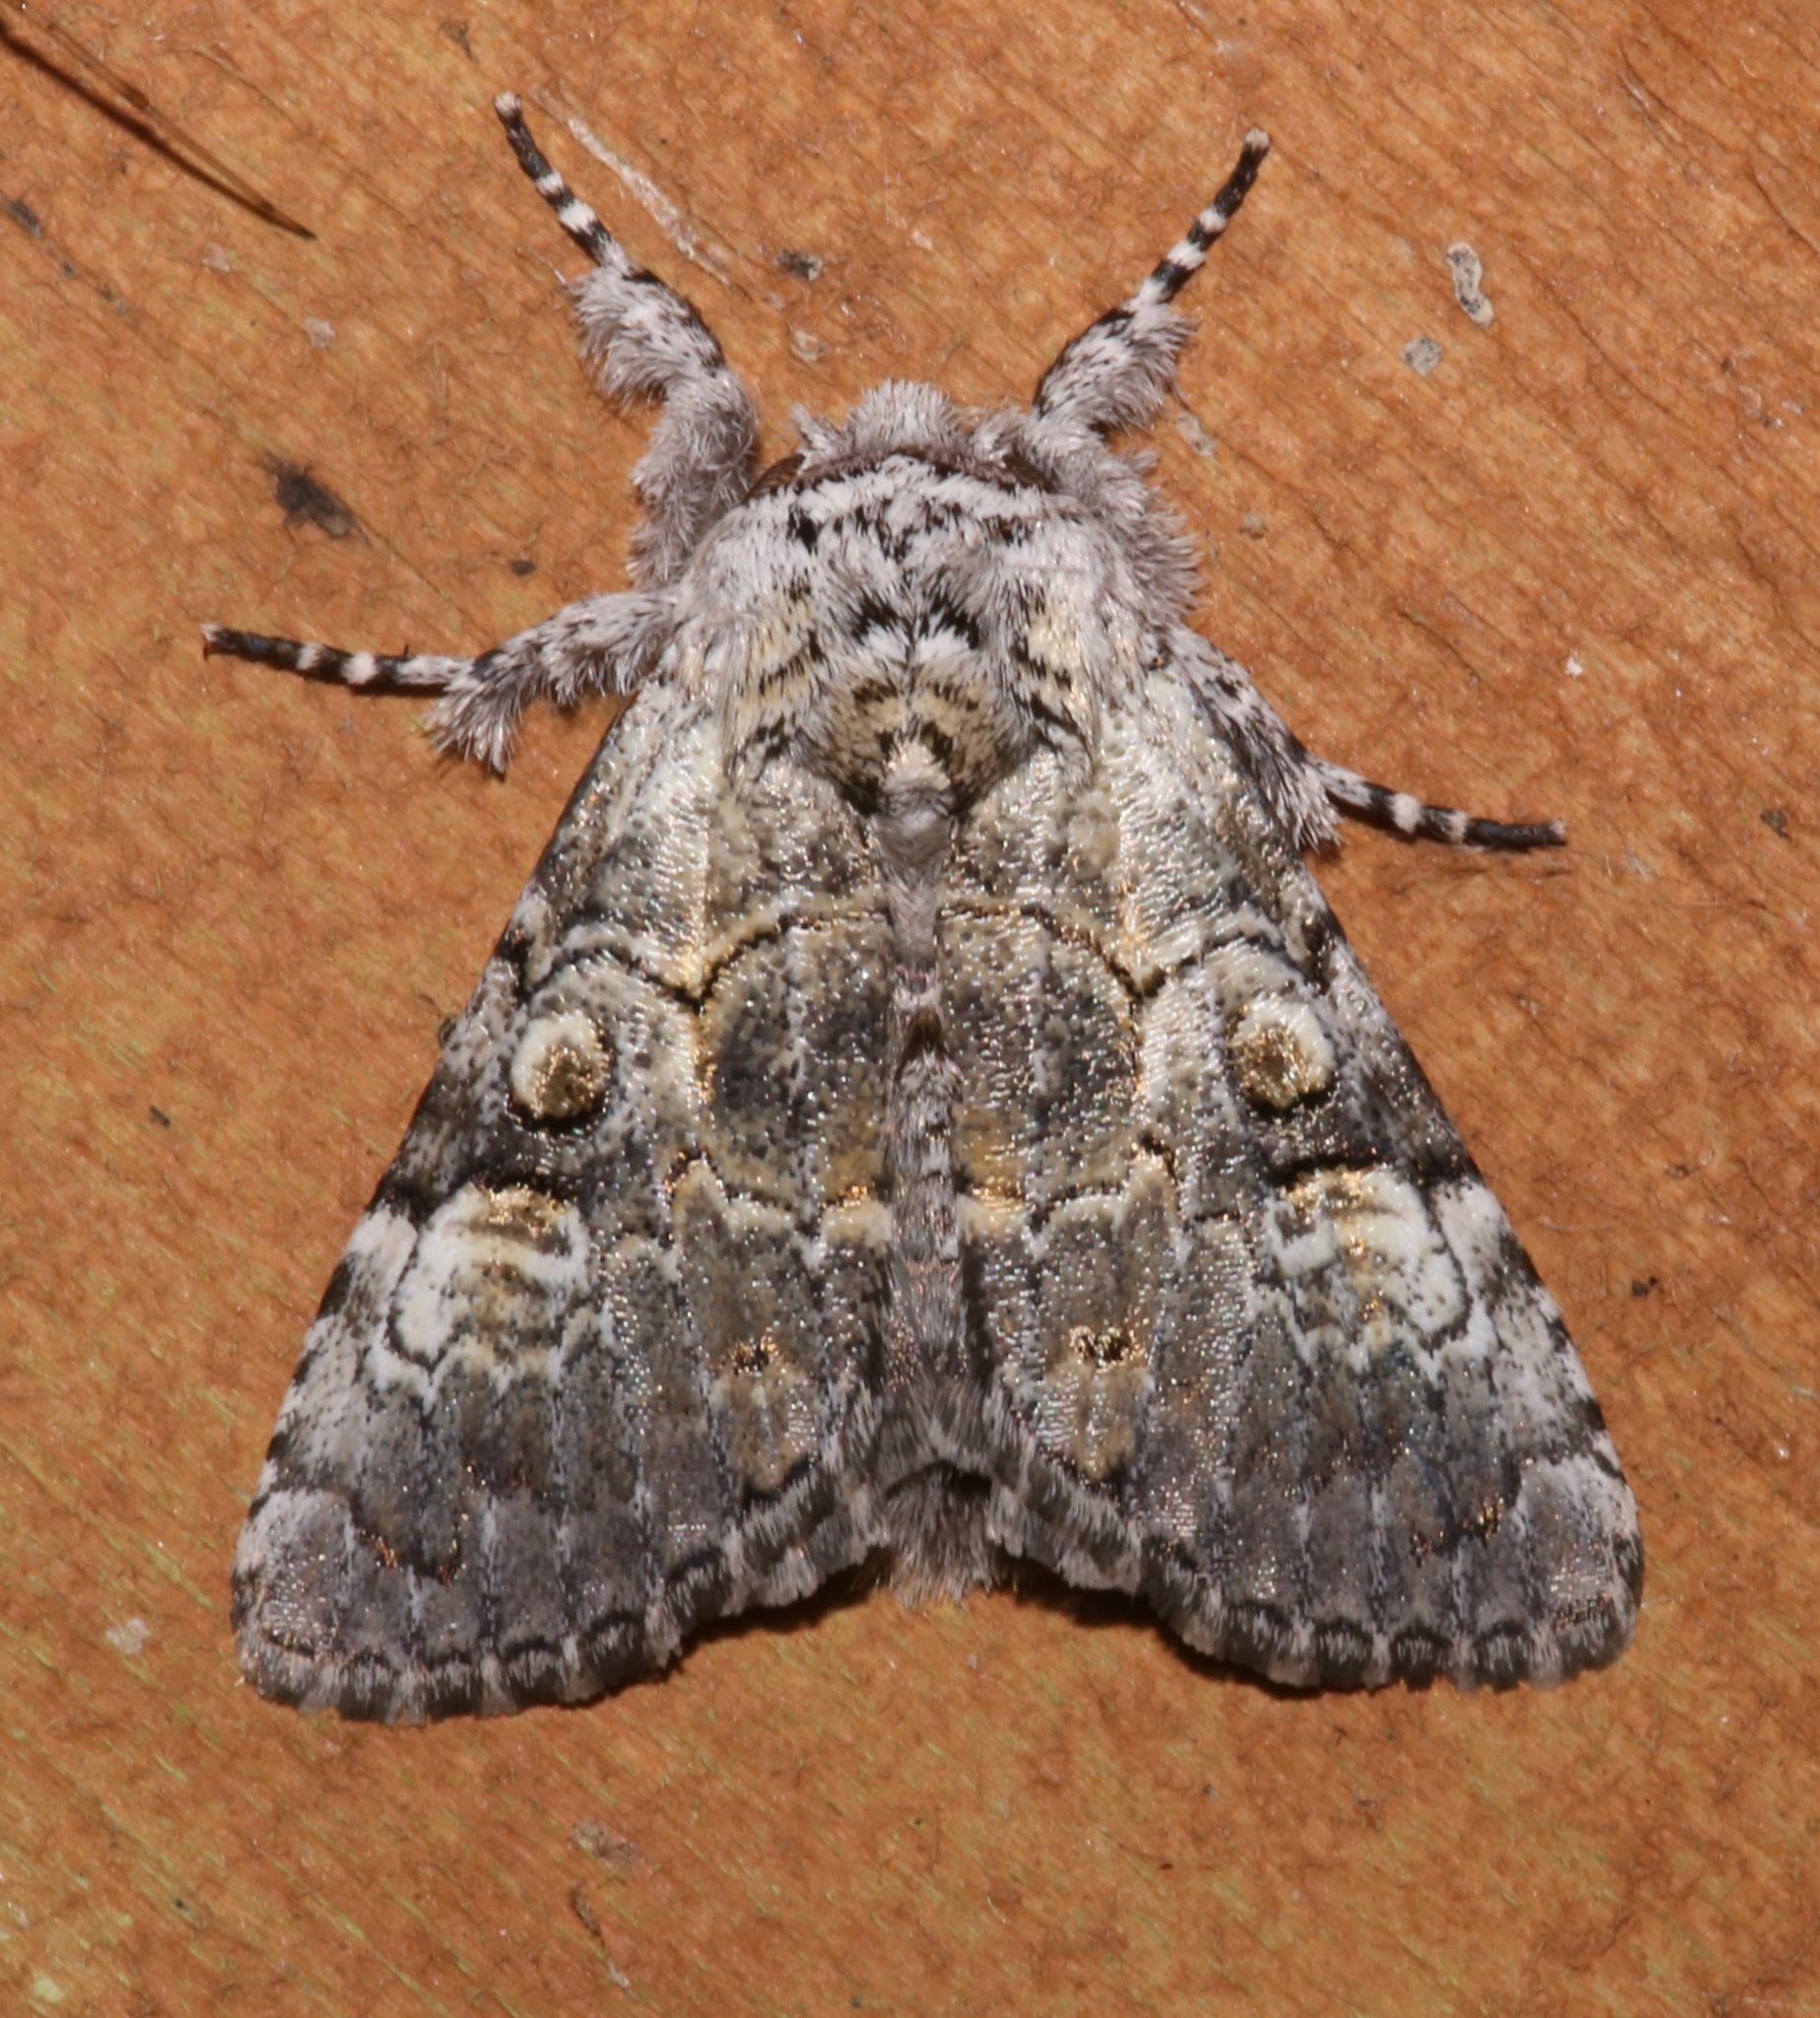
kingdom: Animalia
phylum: Arthropoda
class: Insecta
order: Lepidoptera
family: Noctuidae
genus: Charadra
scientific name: Charadra deridens
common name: Marbled tuffet
